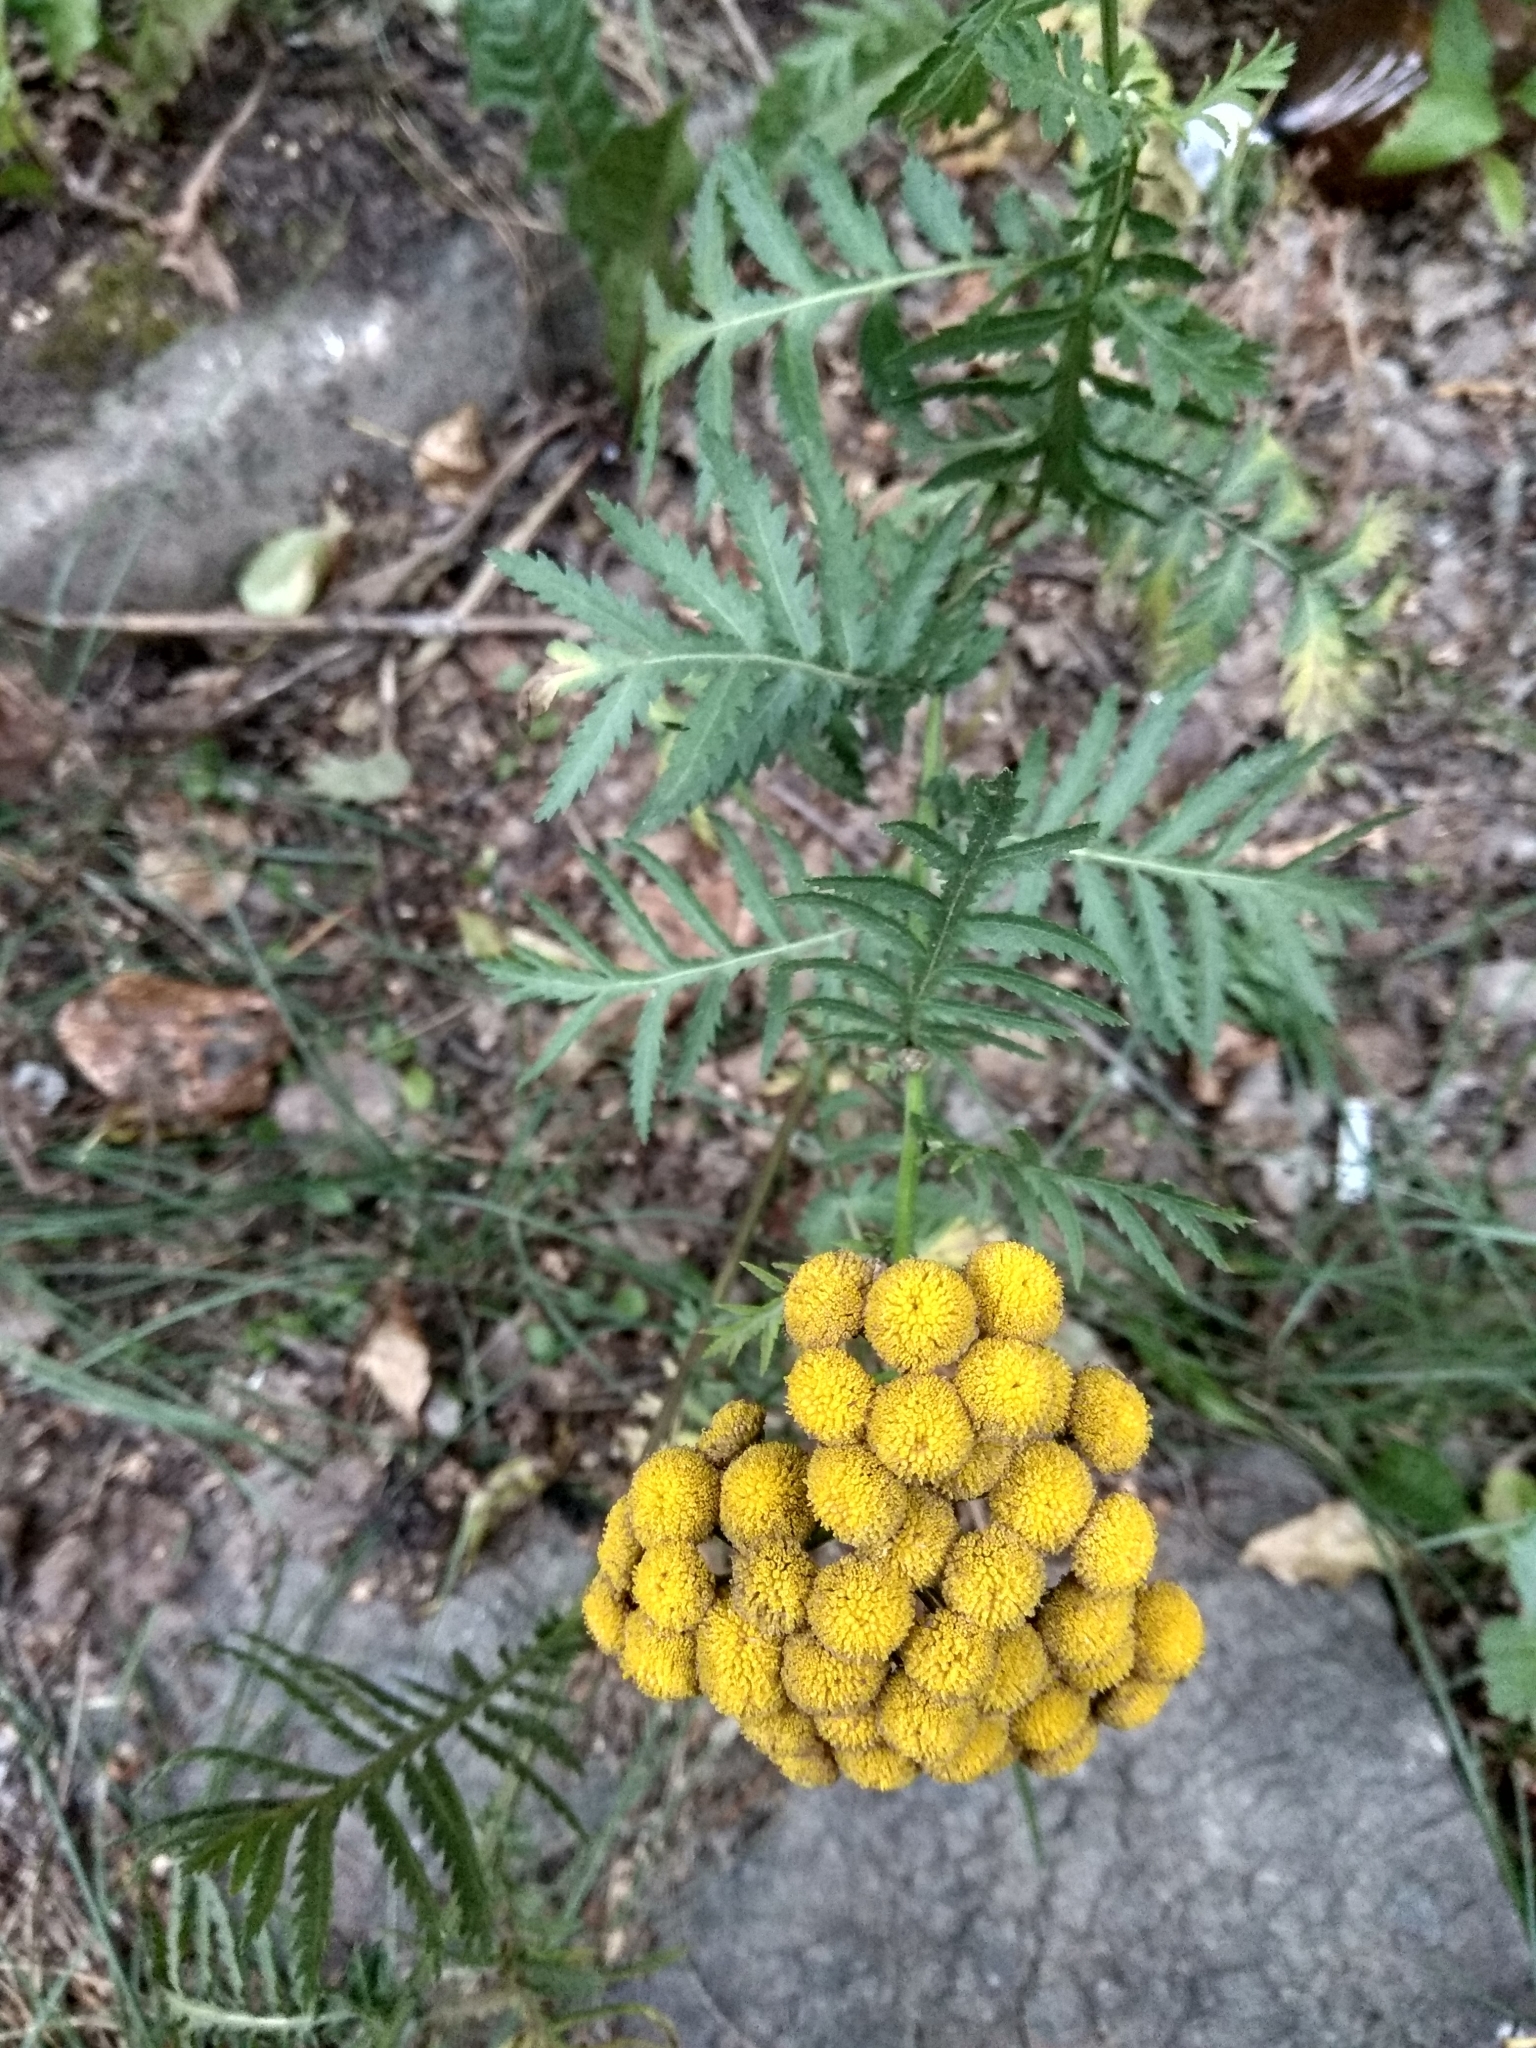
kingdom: Plantae
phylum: Tracheophyta
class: Magnoliopsida
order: Asterales
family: Asteraceae
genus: Tanacetum
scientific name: Tanacetum vulgare
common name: Common tansy
